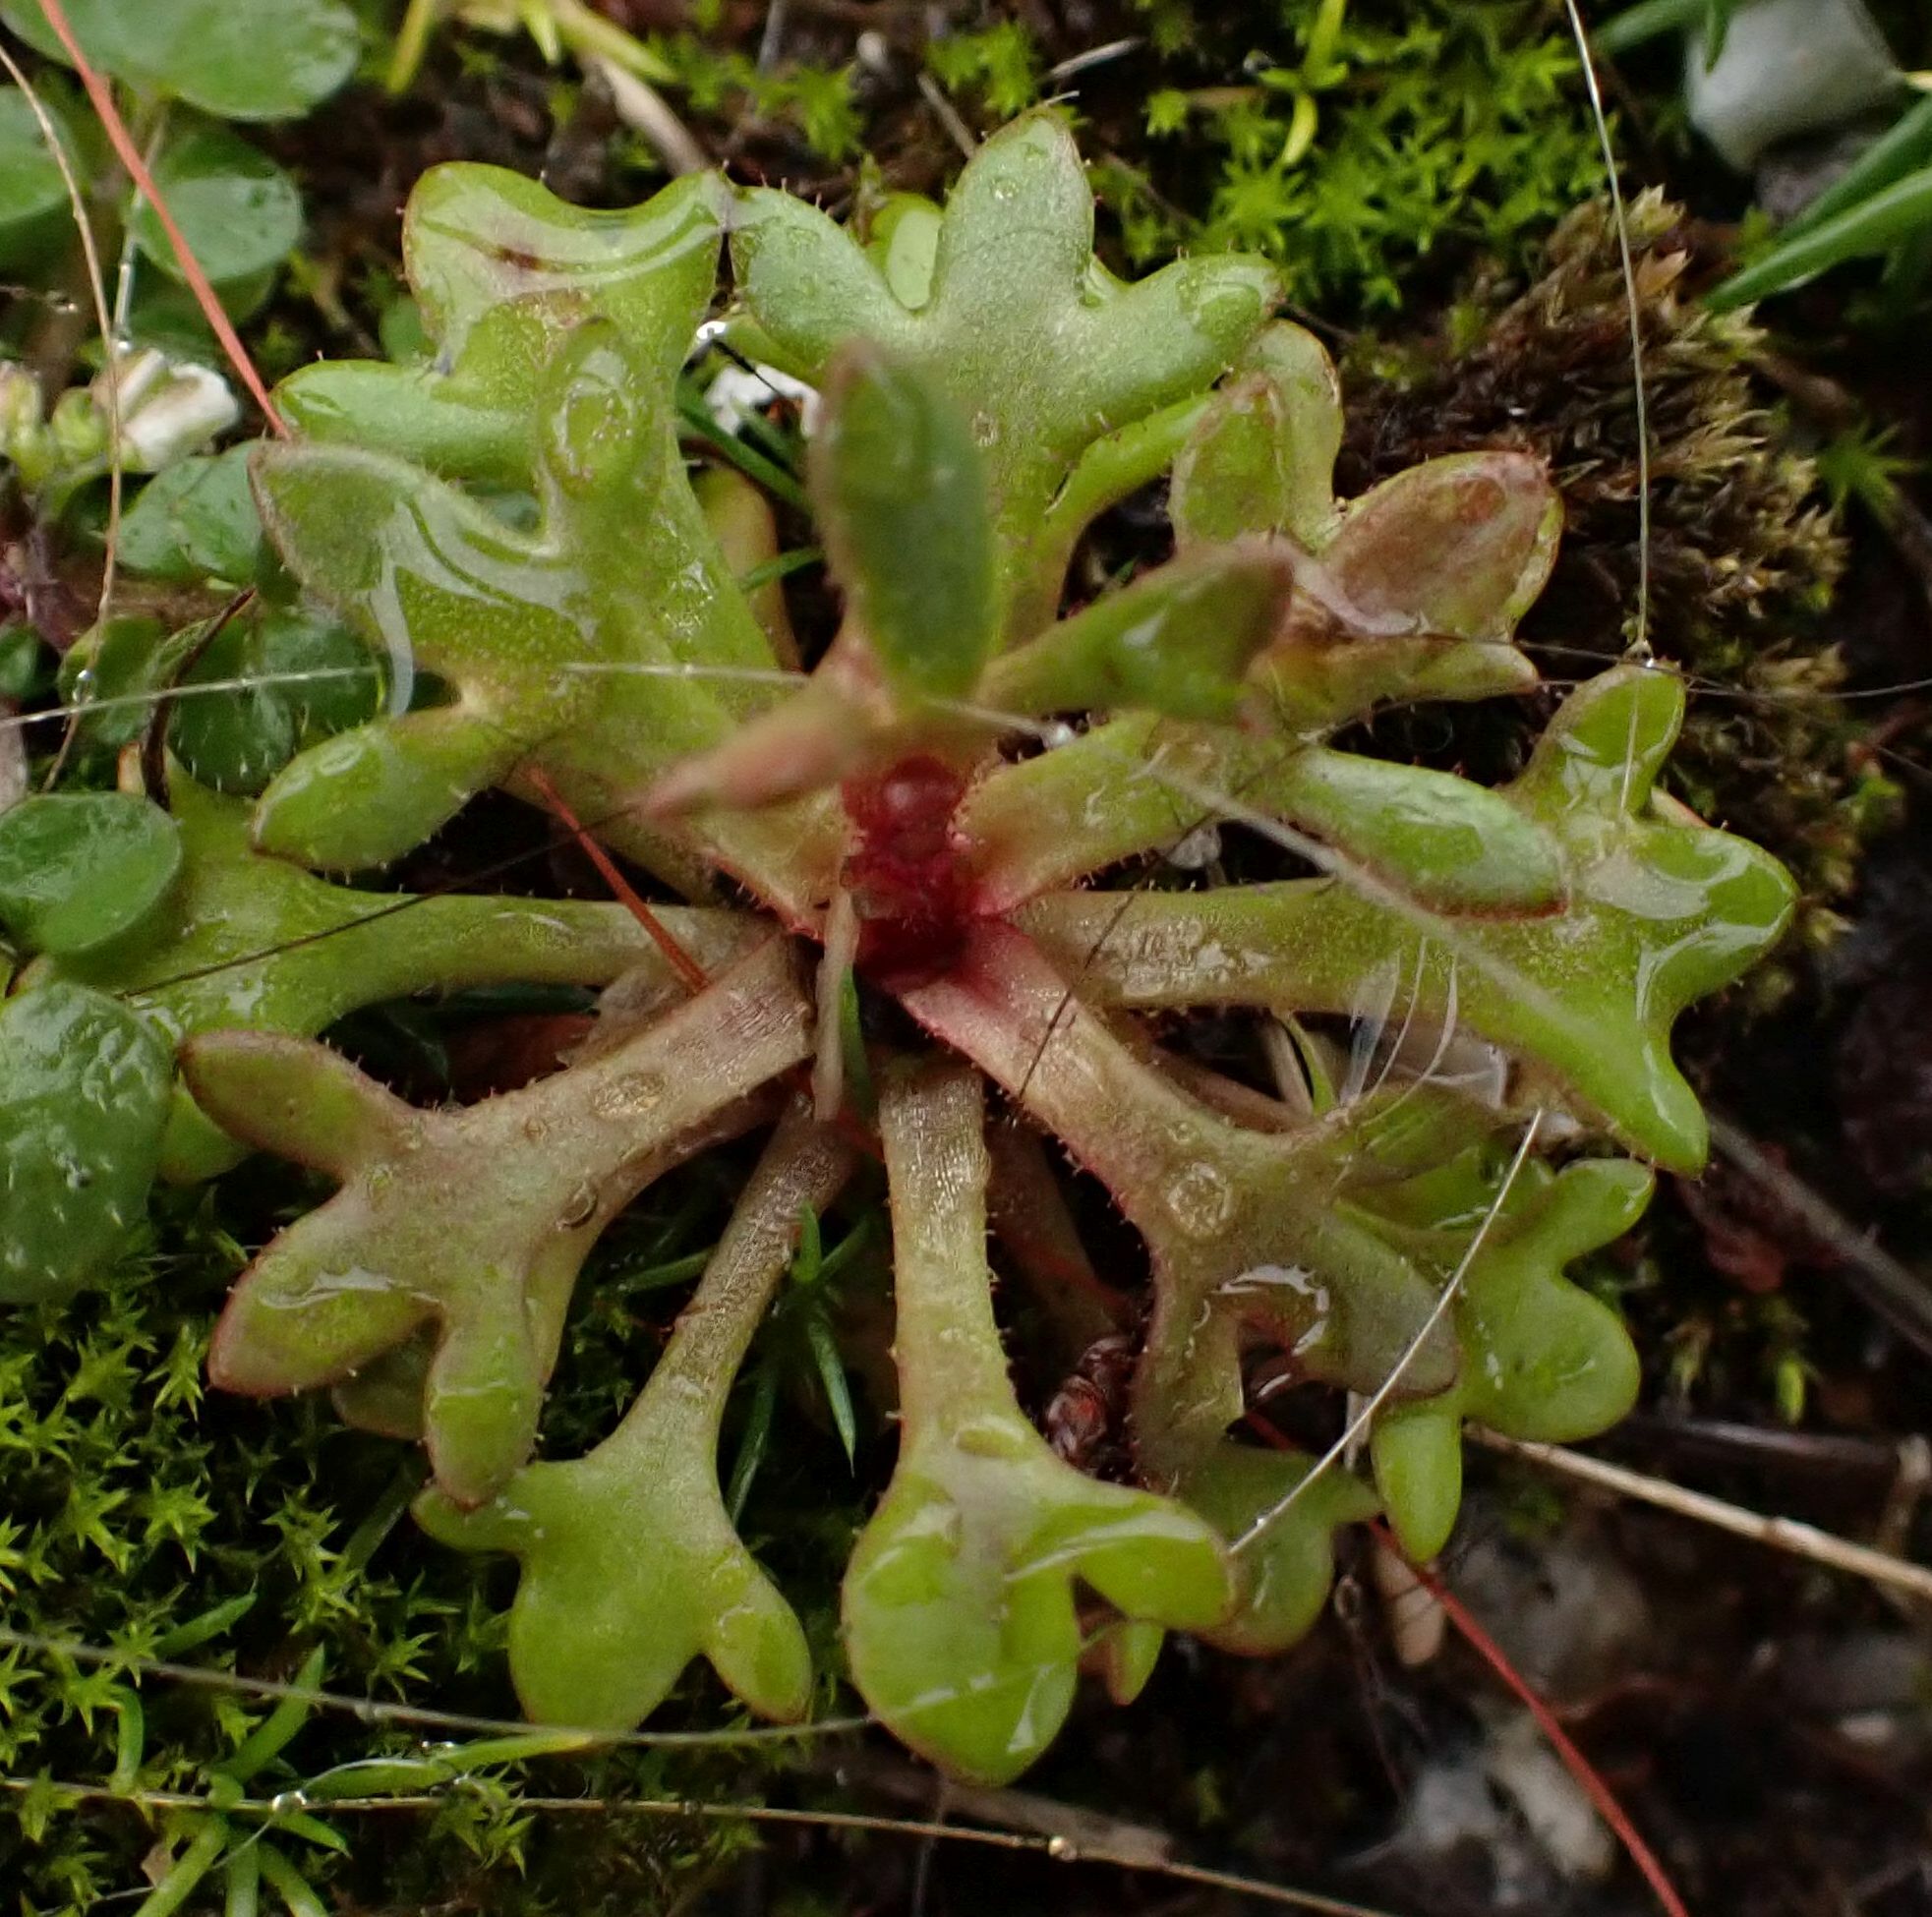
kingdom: Plantae
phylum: Tracheophyta
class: Magnoliopsida
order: Saxifragales
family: Saxifragaceae
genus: Saxifraga
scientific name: Saxifraga tridactylites
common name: Rue-leaved saxifrage
